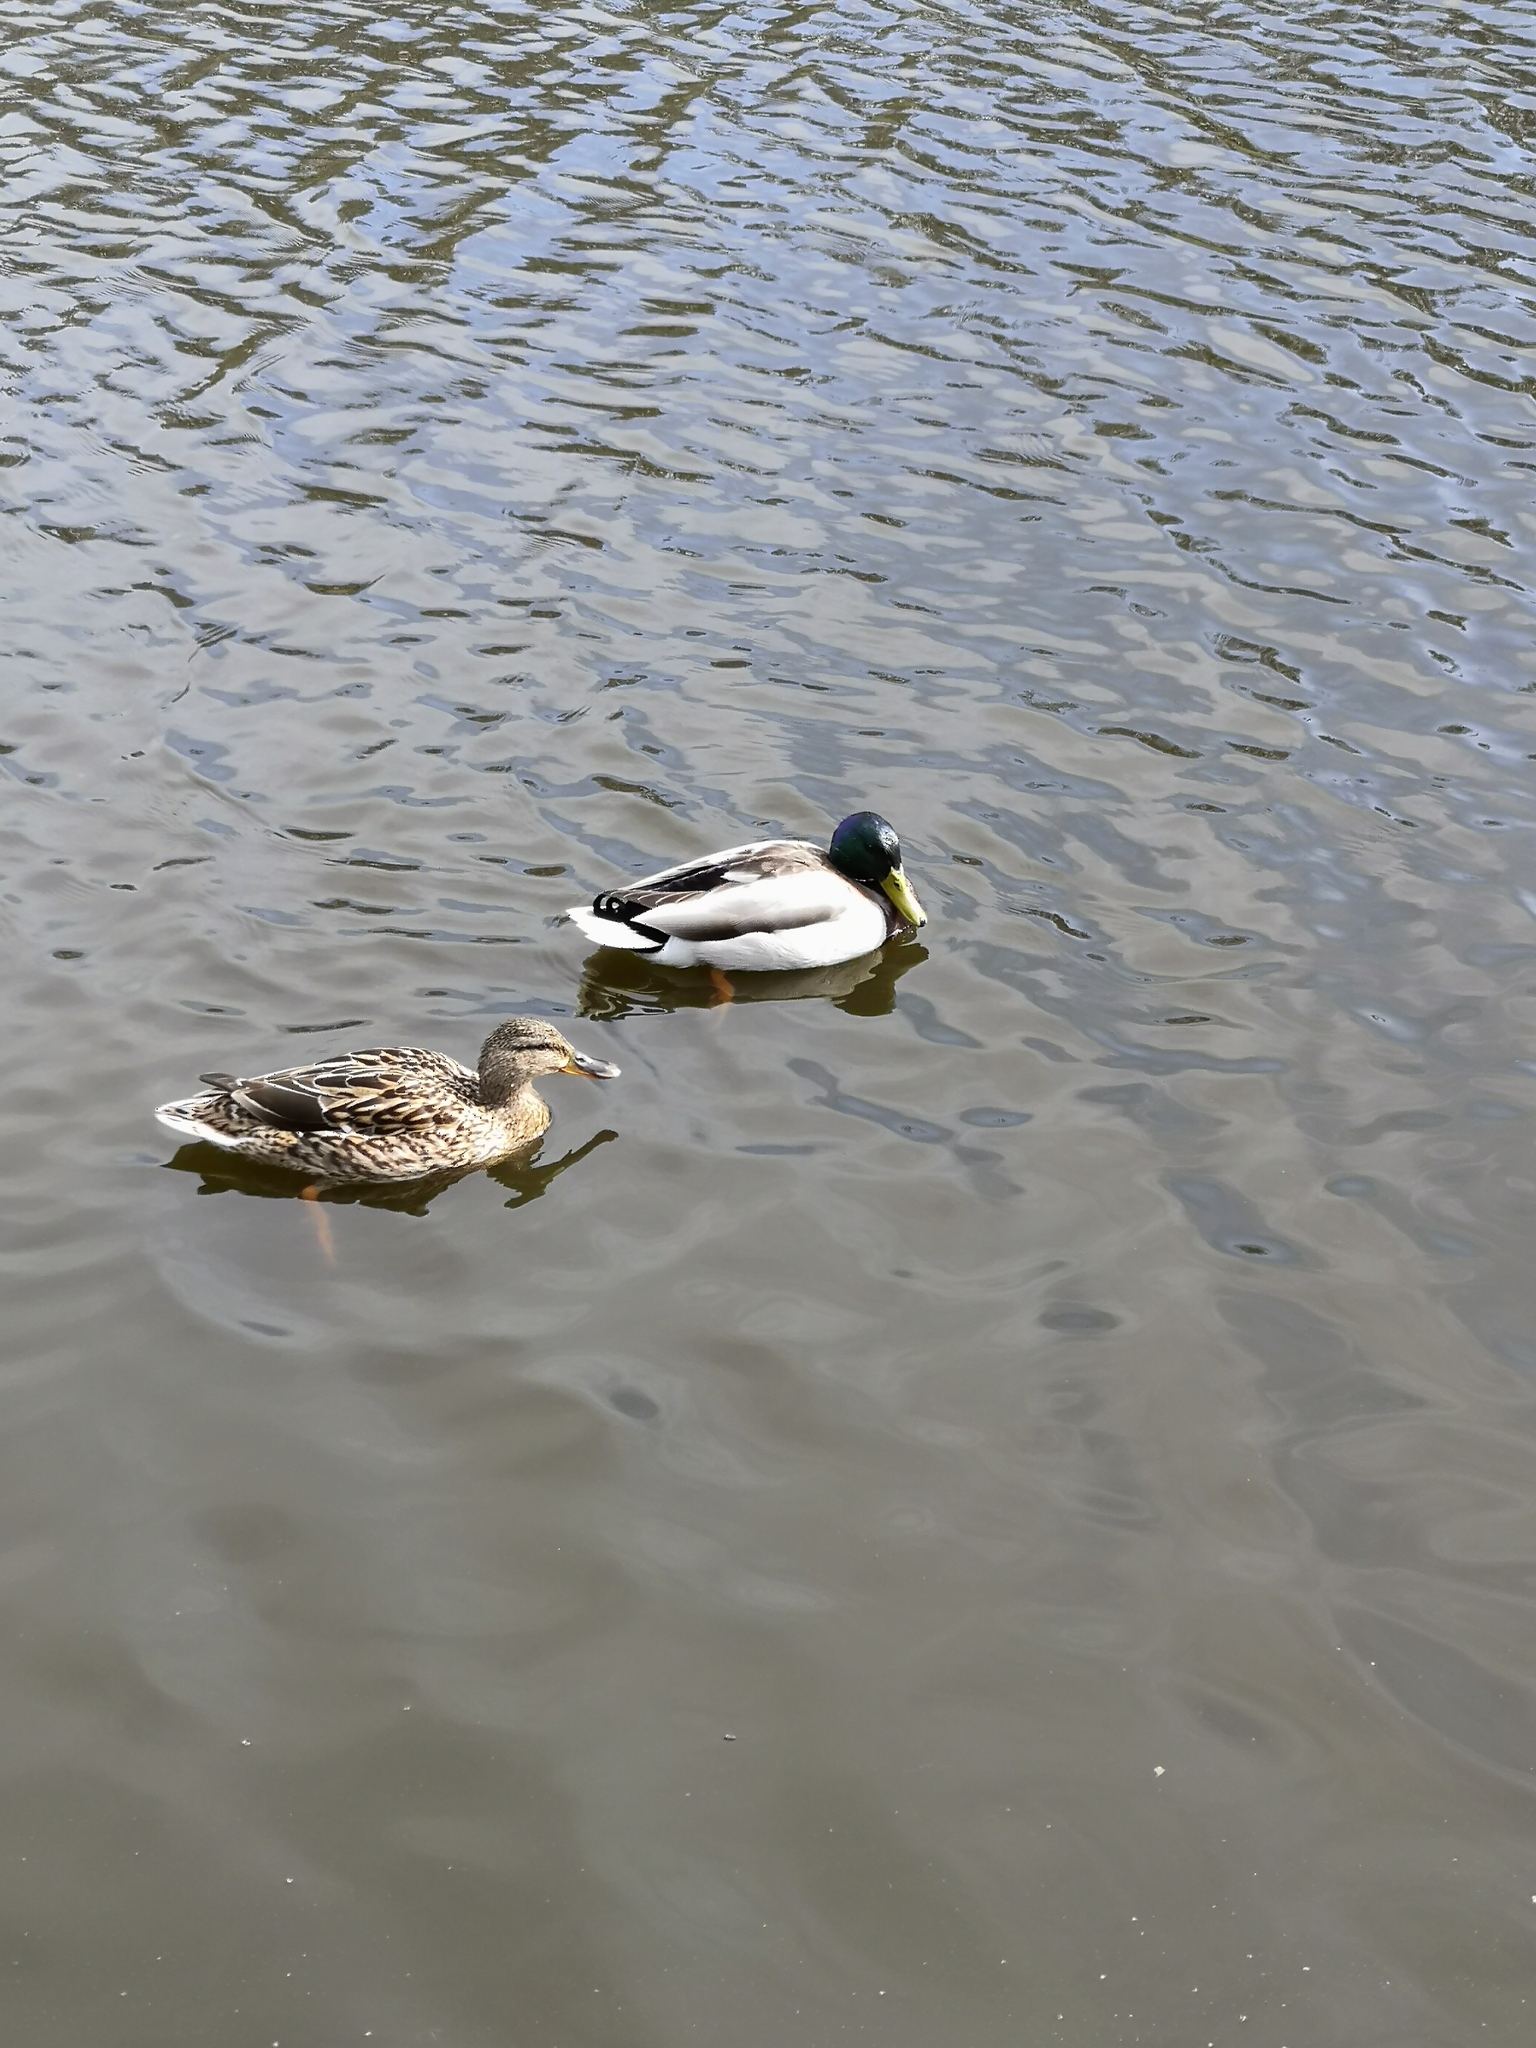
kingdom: Animalia
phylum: Chordata
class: Aves
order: Anseriformes
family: Anatidae
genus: Anas
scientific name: Anas platyrhynchos
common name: Mallard
